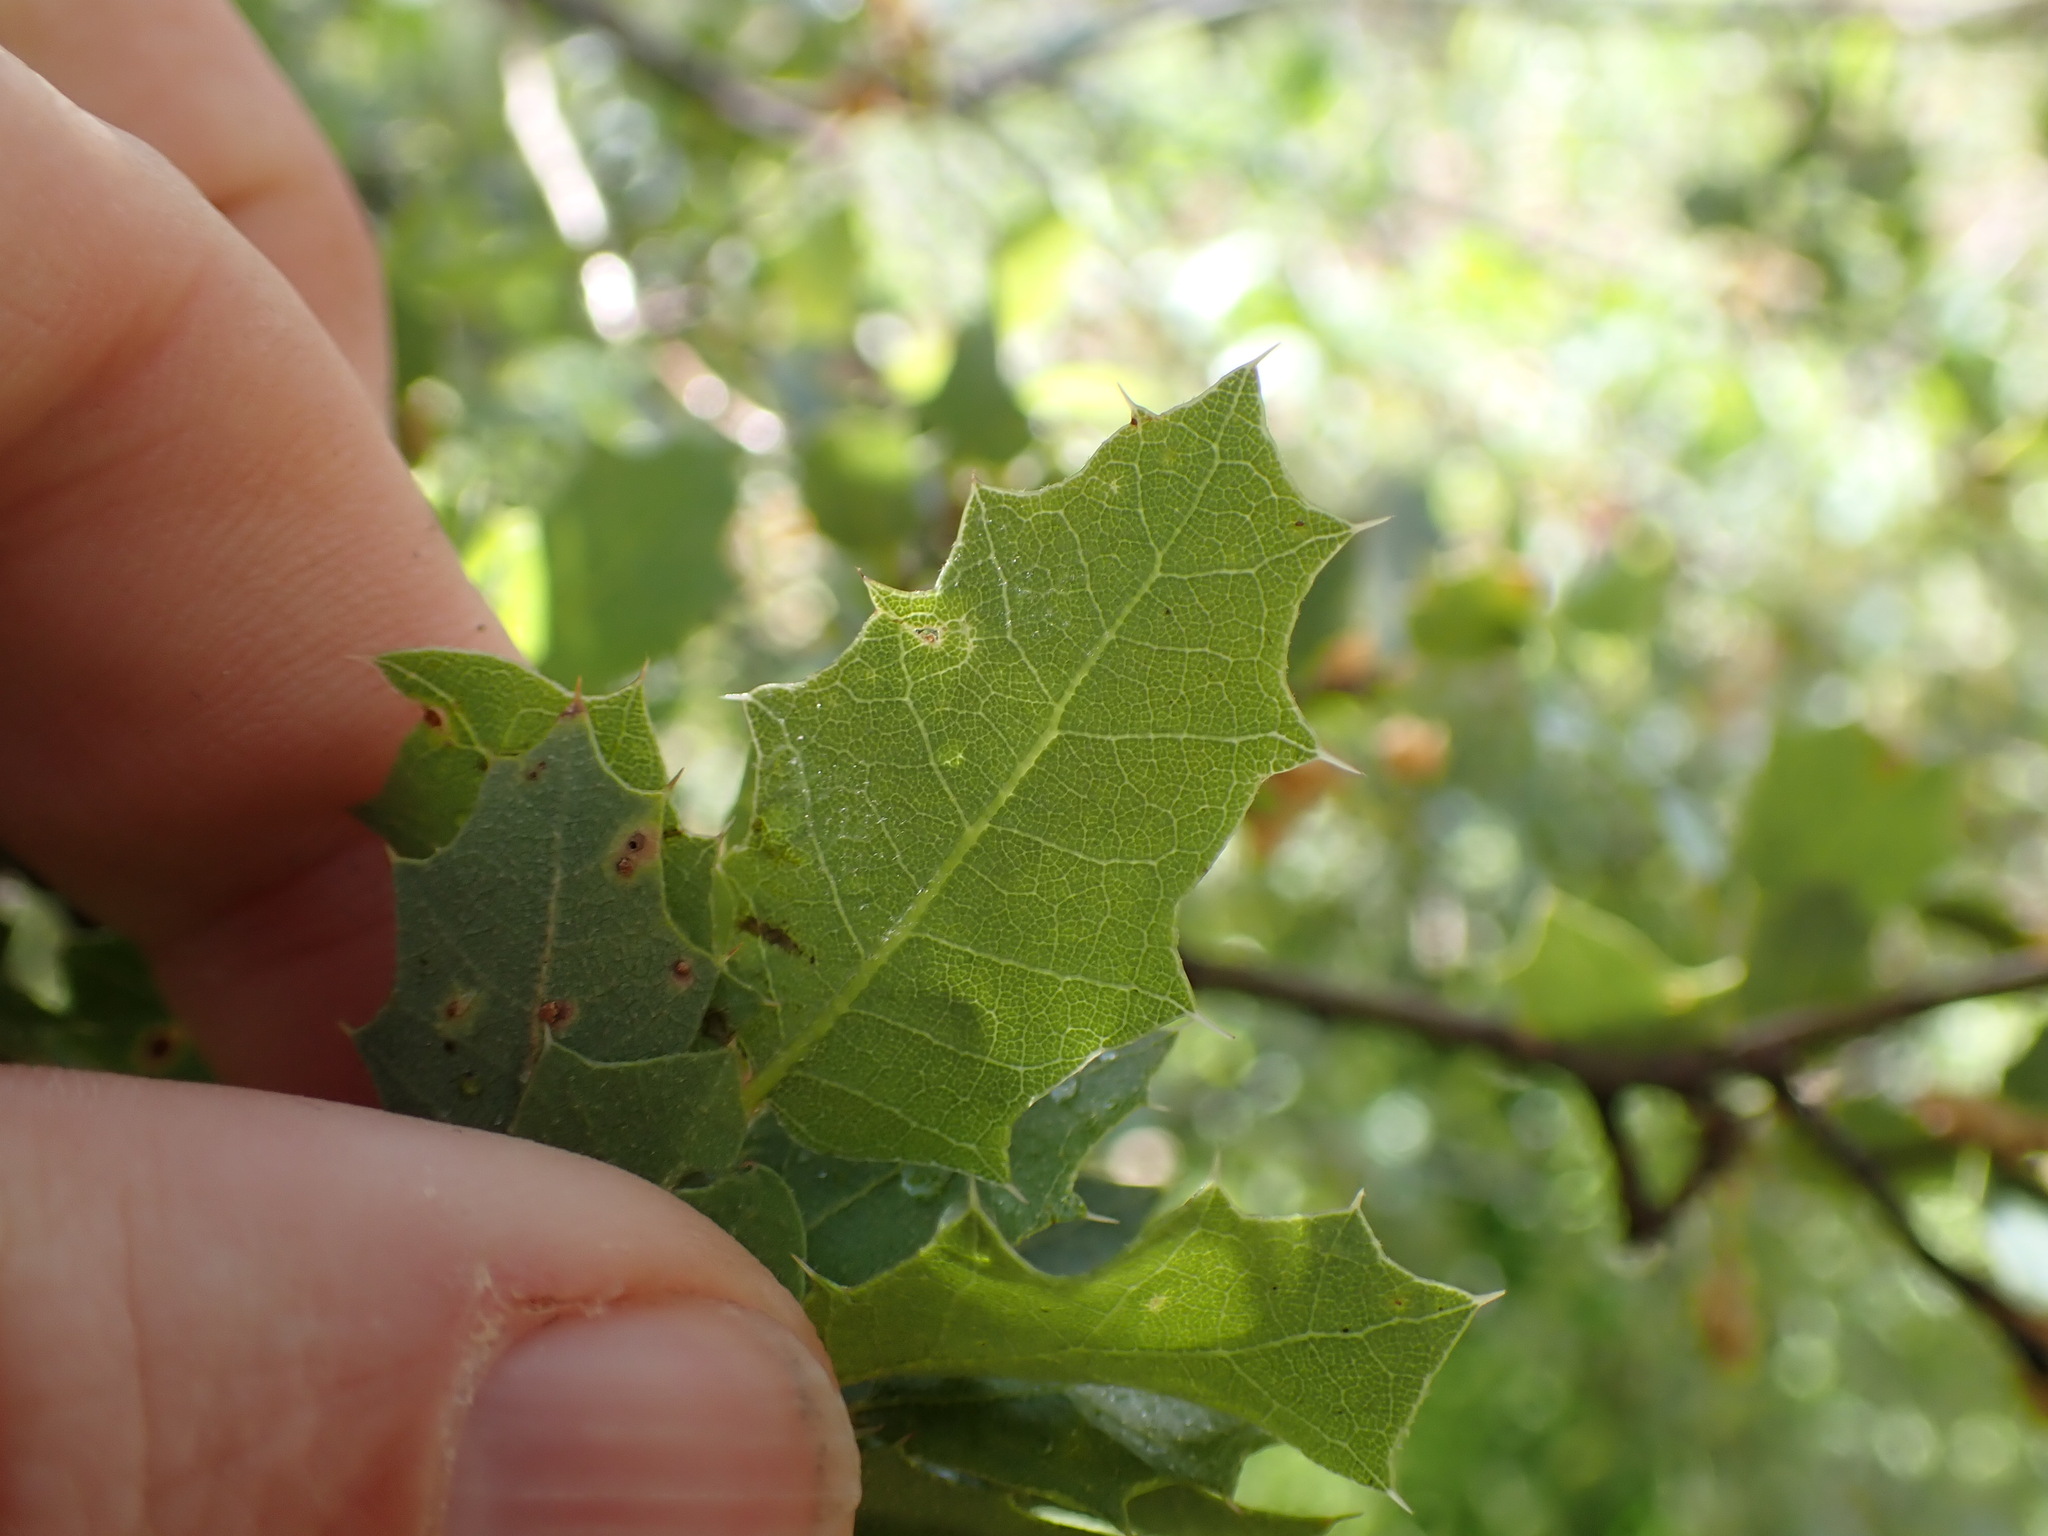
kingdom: Plantae
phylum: Tracheophyta
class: Magnoliopsida
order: Fagales
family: Fagaceae
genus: Quercus
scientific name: Quercus turbinella
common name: Sonoran scrub oak
